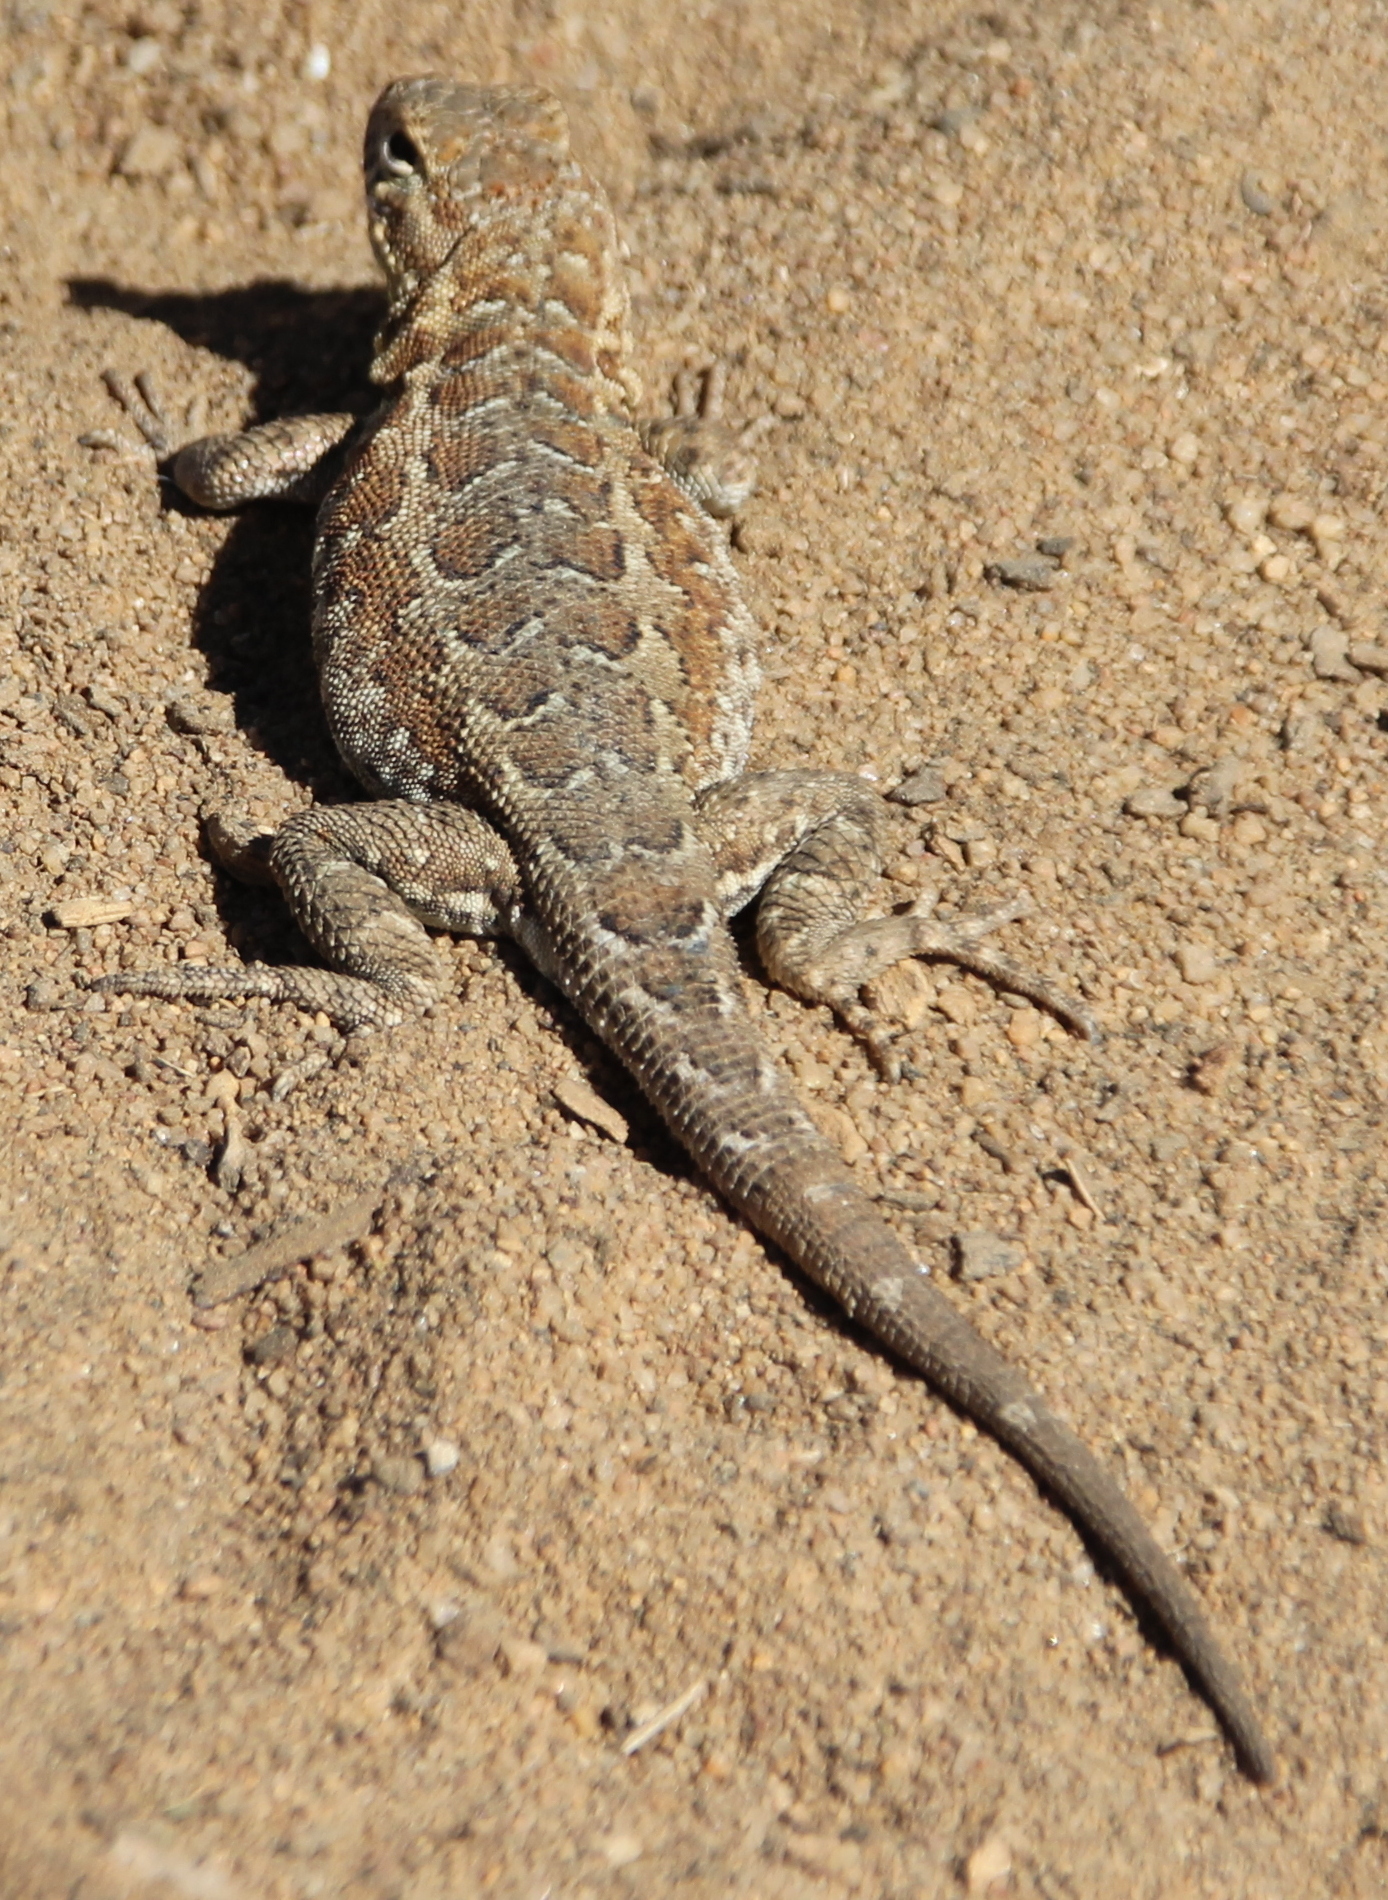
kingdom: Animalia
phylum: Chordata
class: Squamata
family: Phrynosomatidae
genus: Uta
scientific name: Uta stansburiana
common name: Side-blotched lizard
